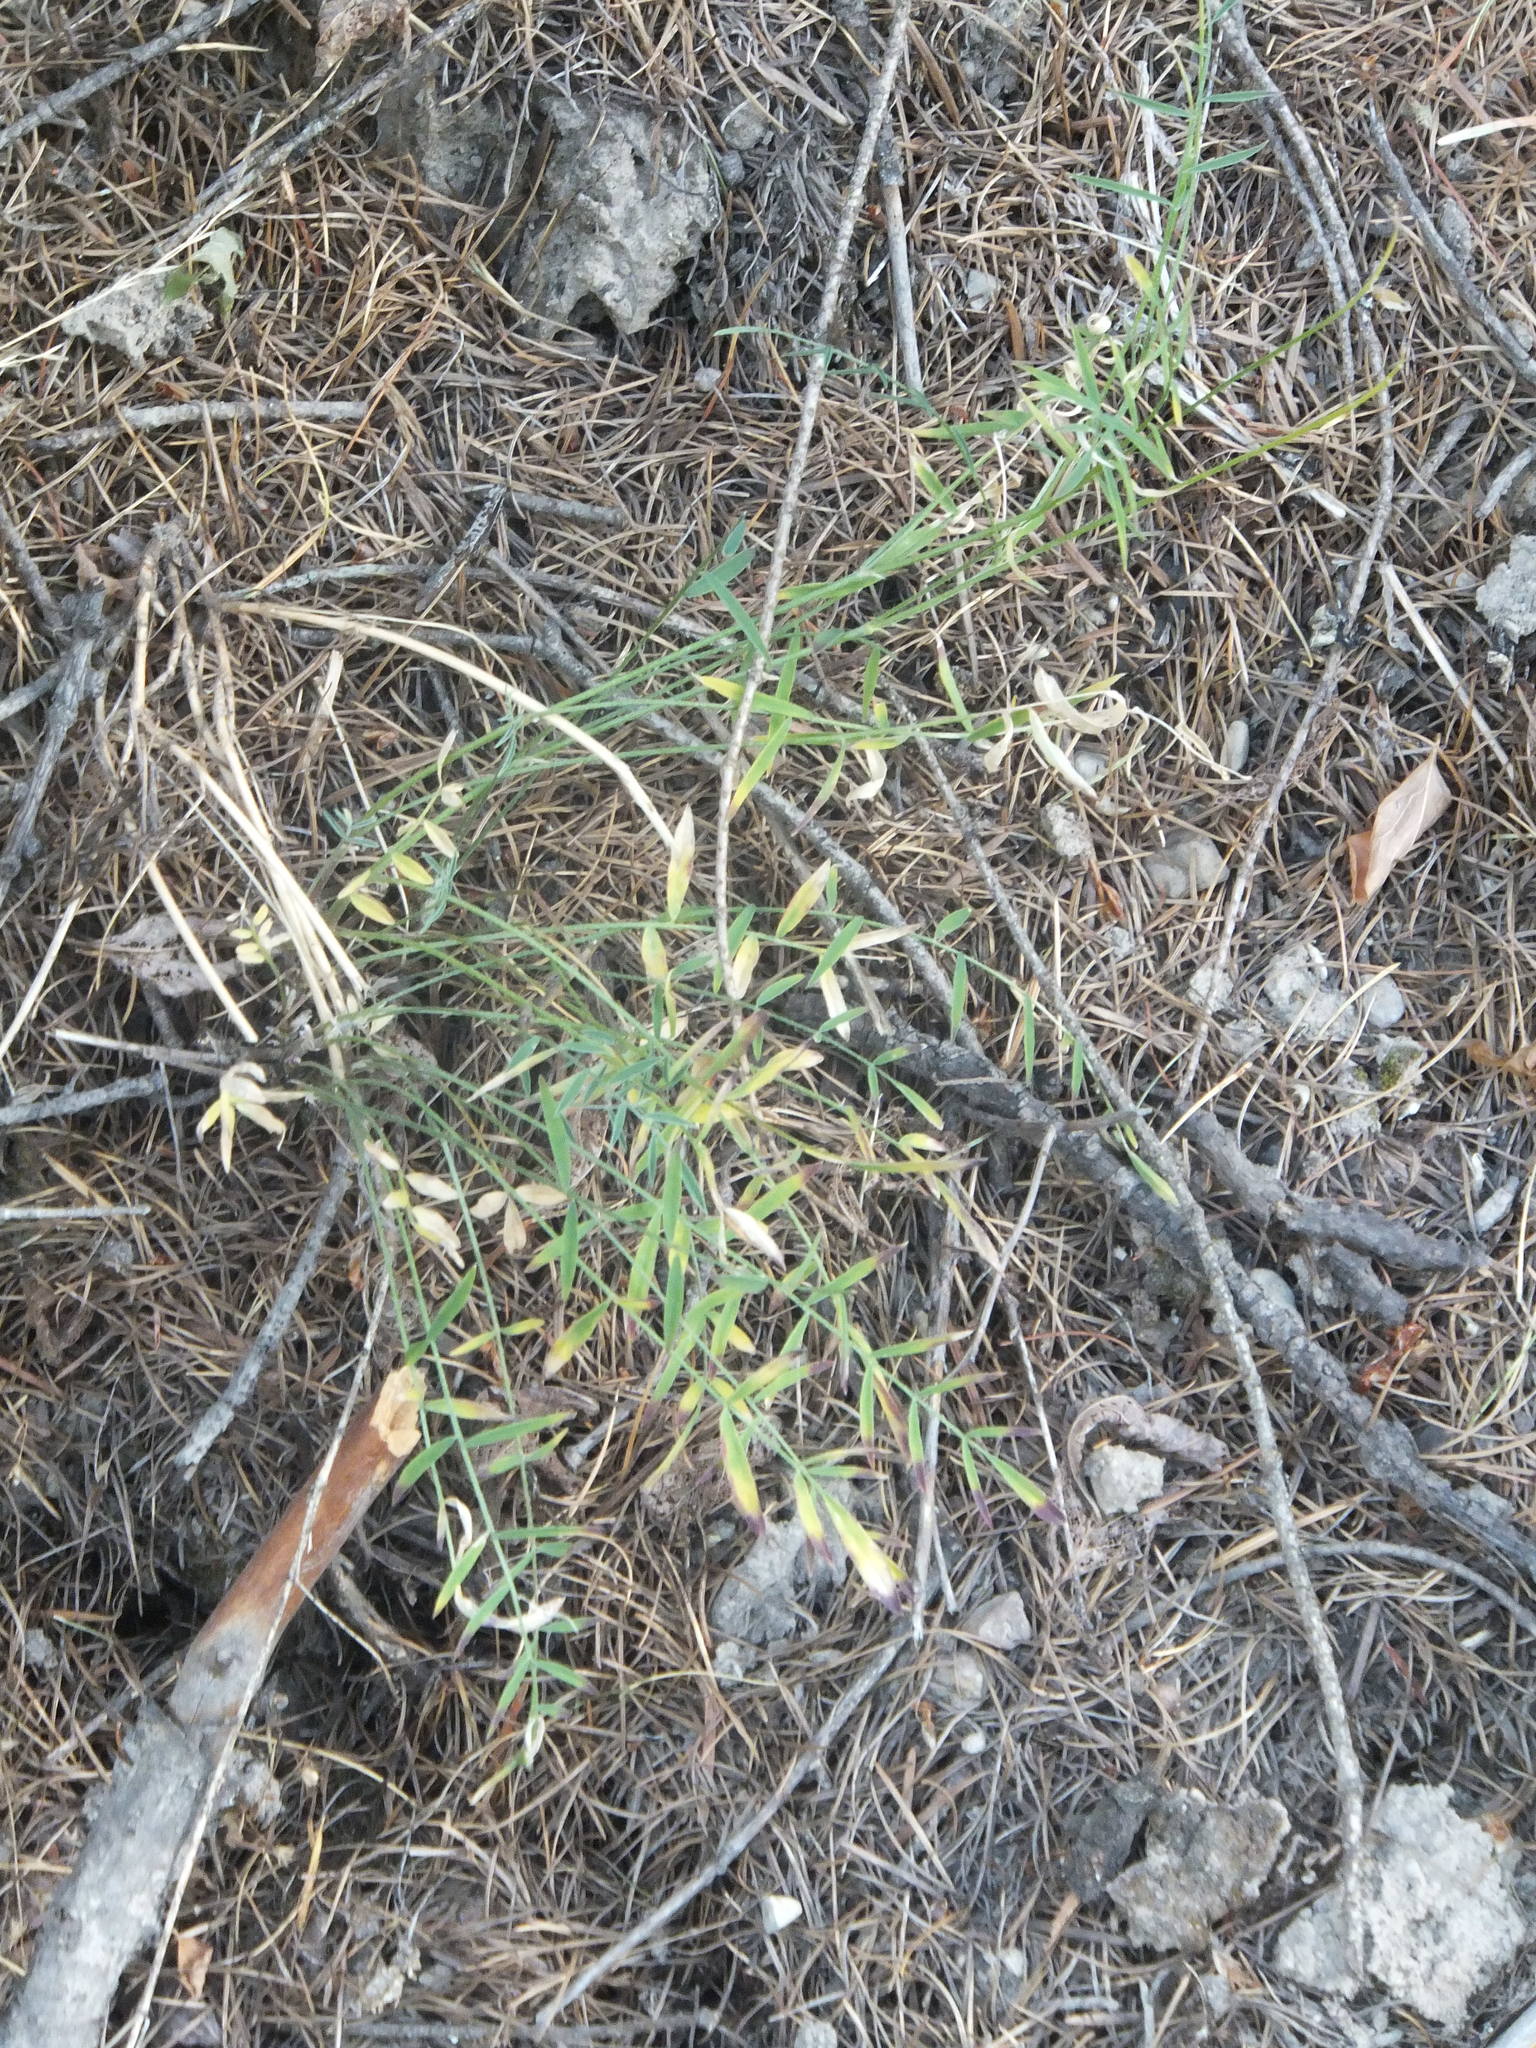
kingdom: Plantae
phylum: Tracheophyta
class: Magnoliopsida
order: Fabales
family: Fabaceae
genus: Astragalus
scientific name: Astragalus miser
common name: Timber milkvetch
